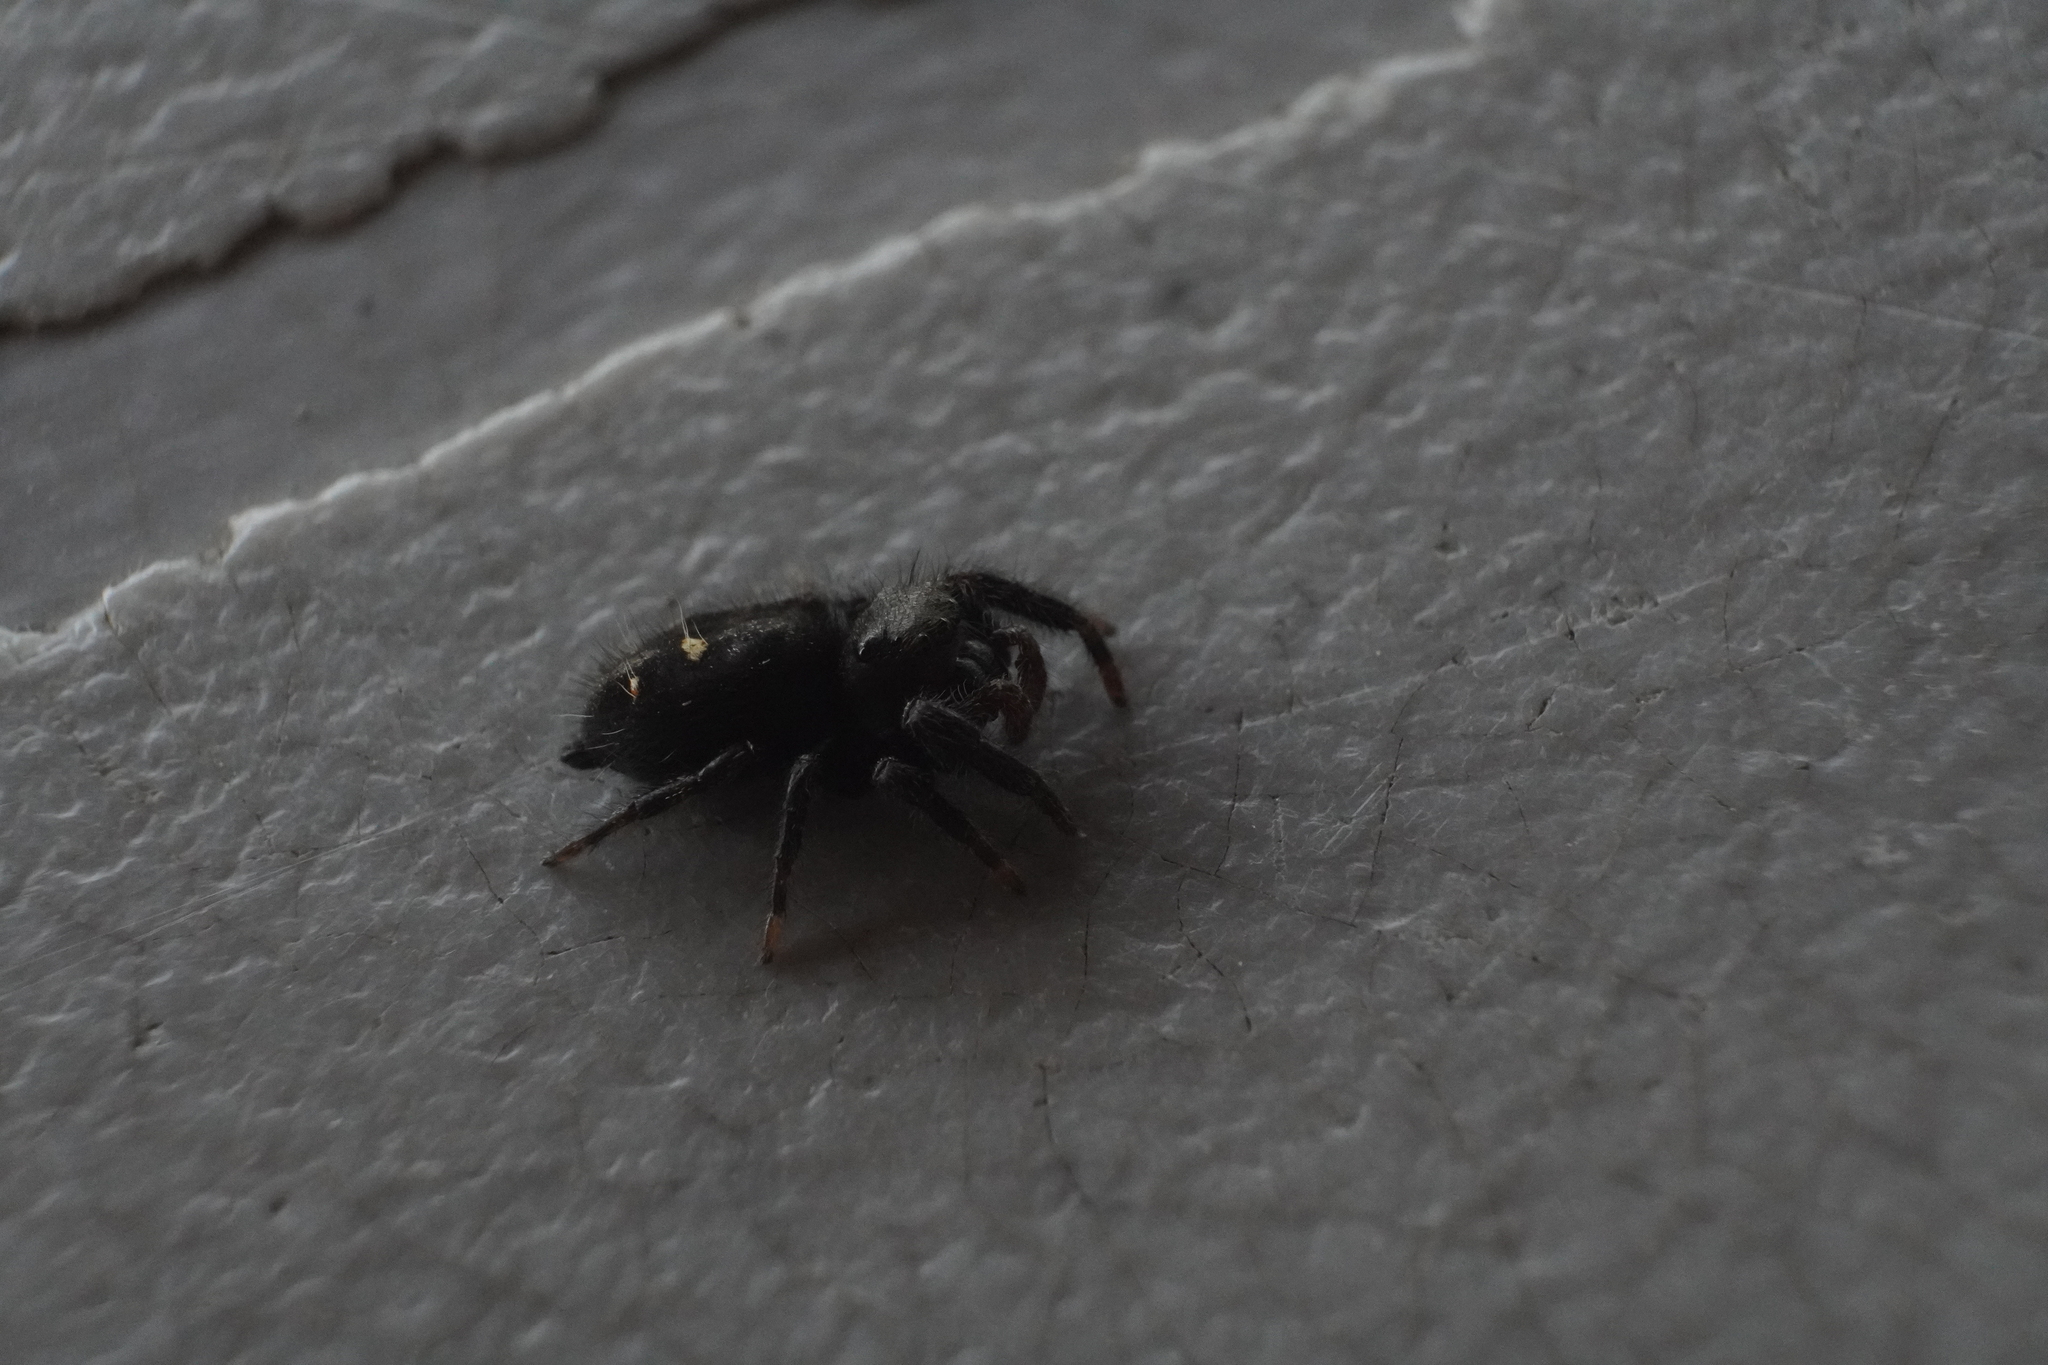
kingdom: Animalia
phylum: Arthropoda
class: Arachnida
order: Araneae
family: Salticidae
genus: Phidippus
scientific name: Phidippus audax
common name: Bold jumper
